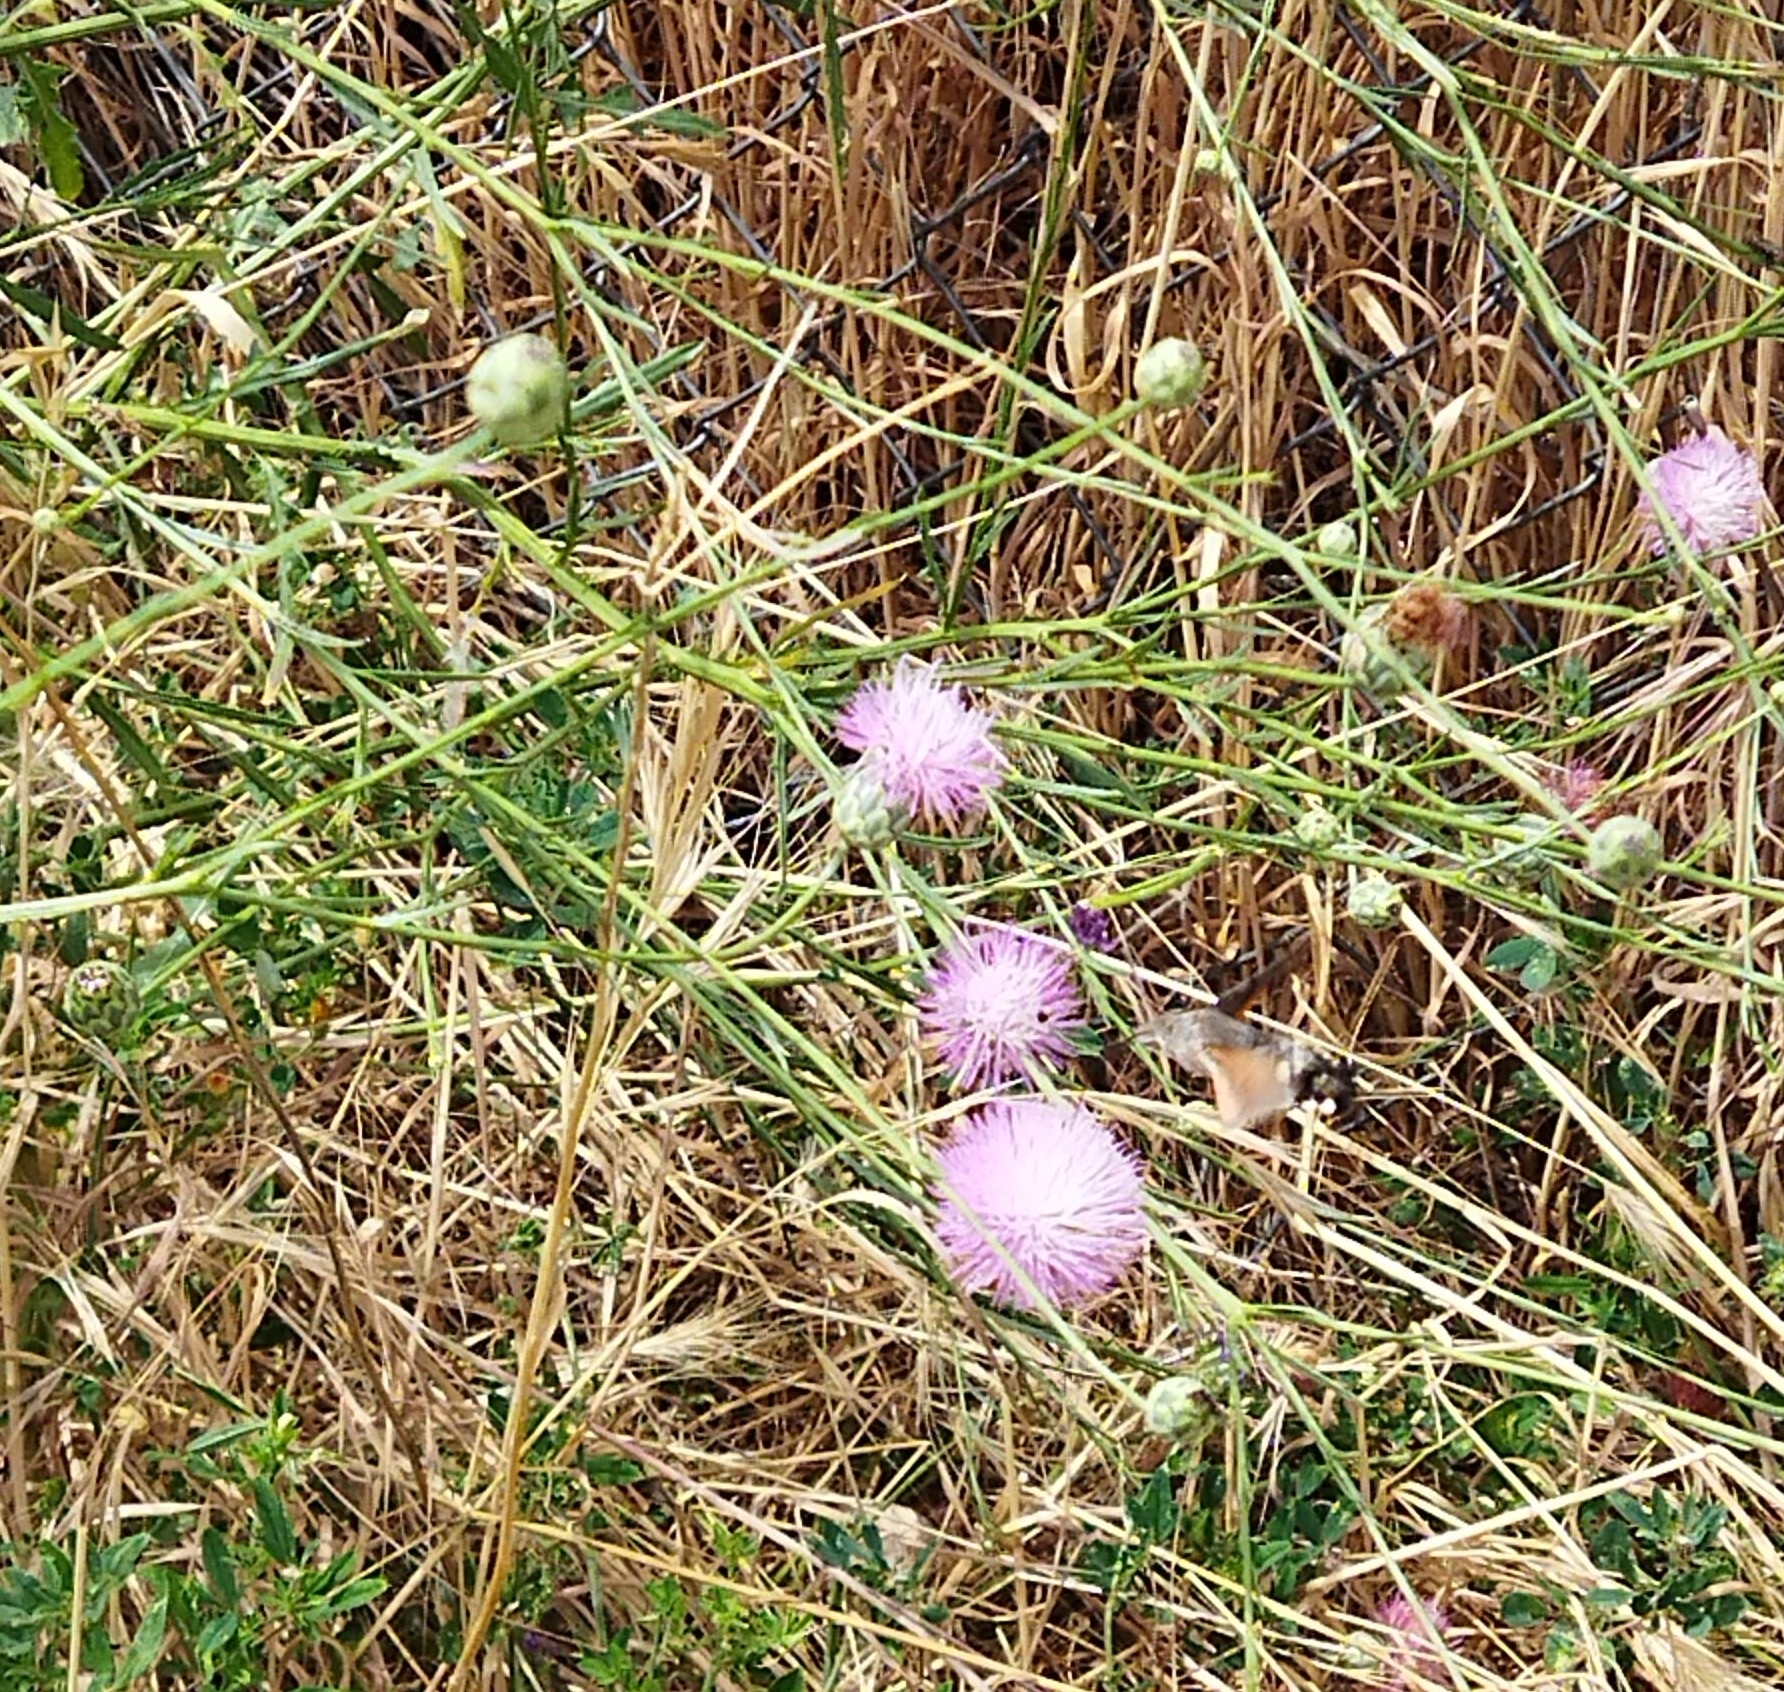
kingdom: Animalia
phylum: Arthropoda
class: Insecta
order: Lepidoptera
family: Sphingidae
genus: Macroglossum
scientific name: Macroglossum stellatarum
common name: Humming-bird hawk-moth
